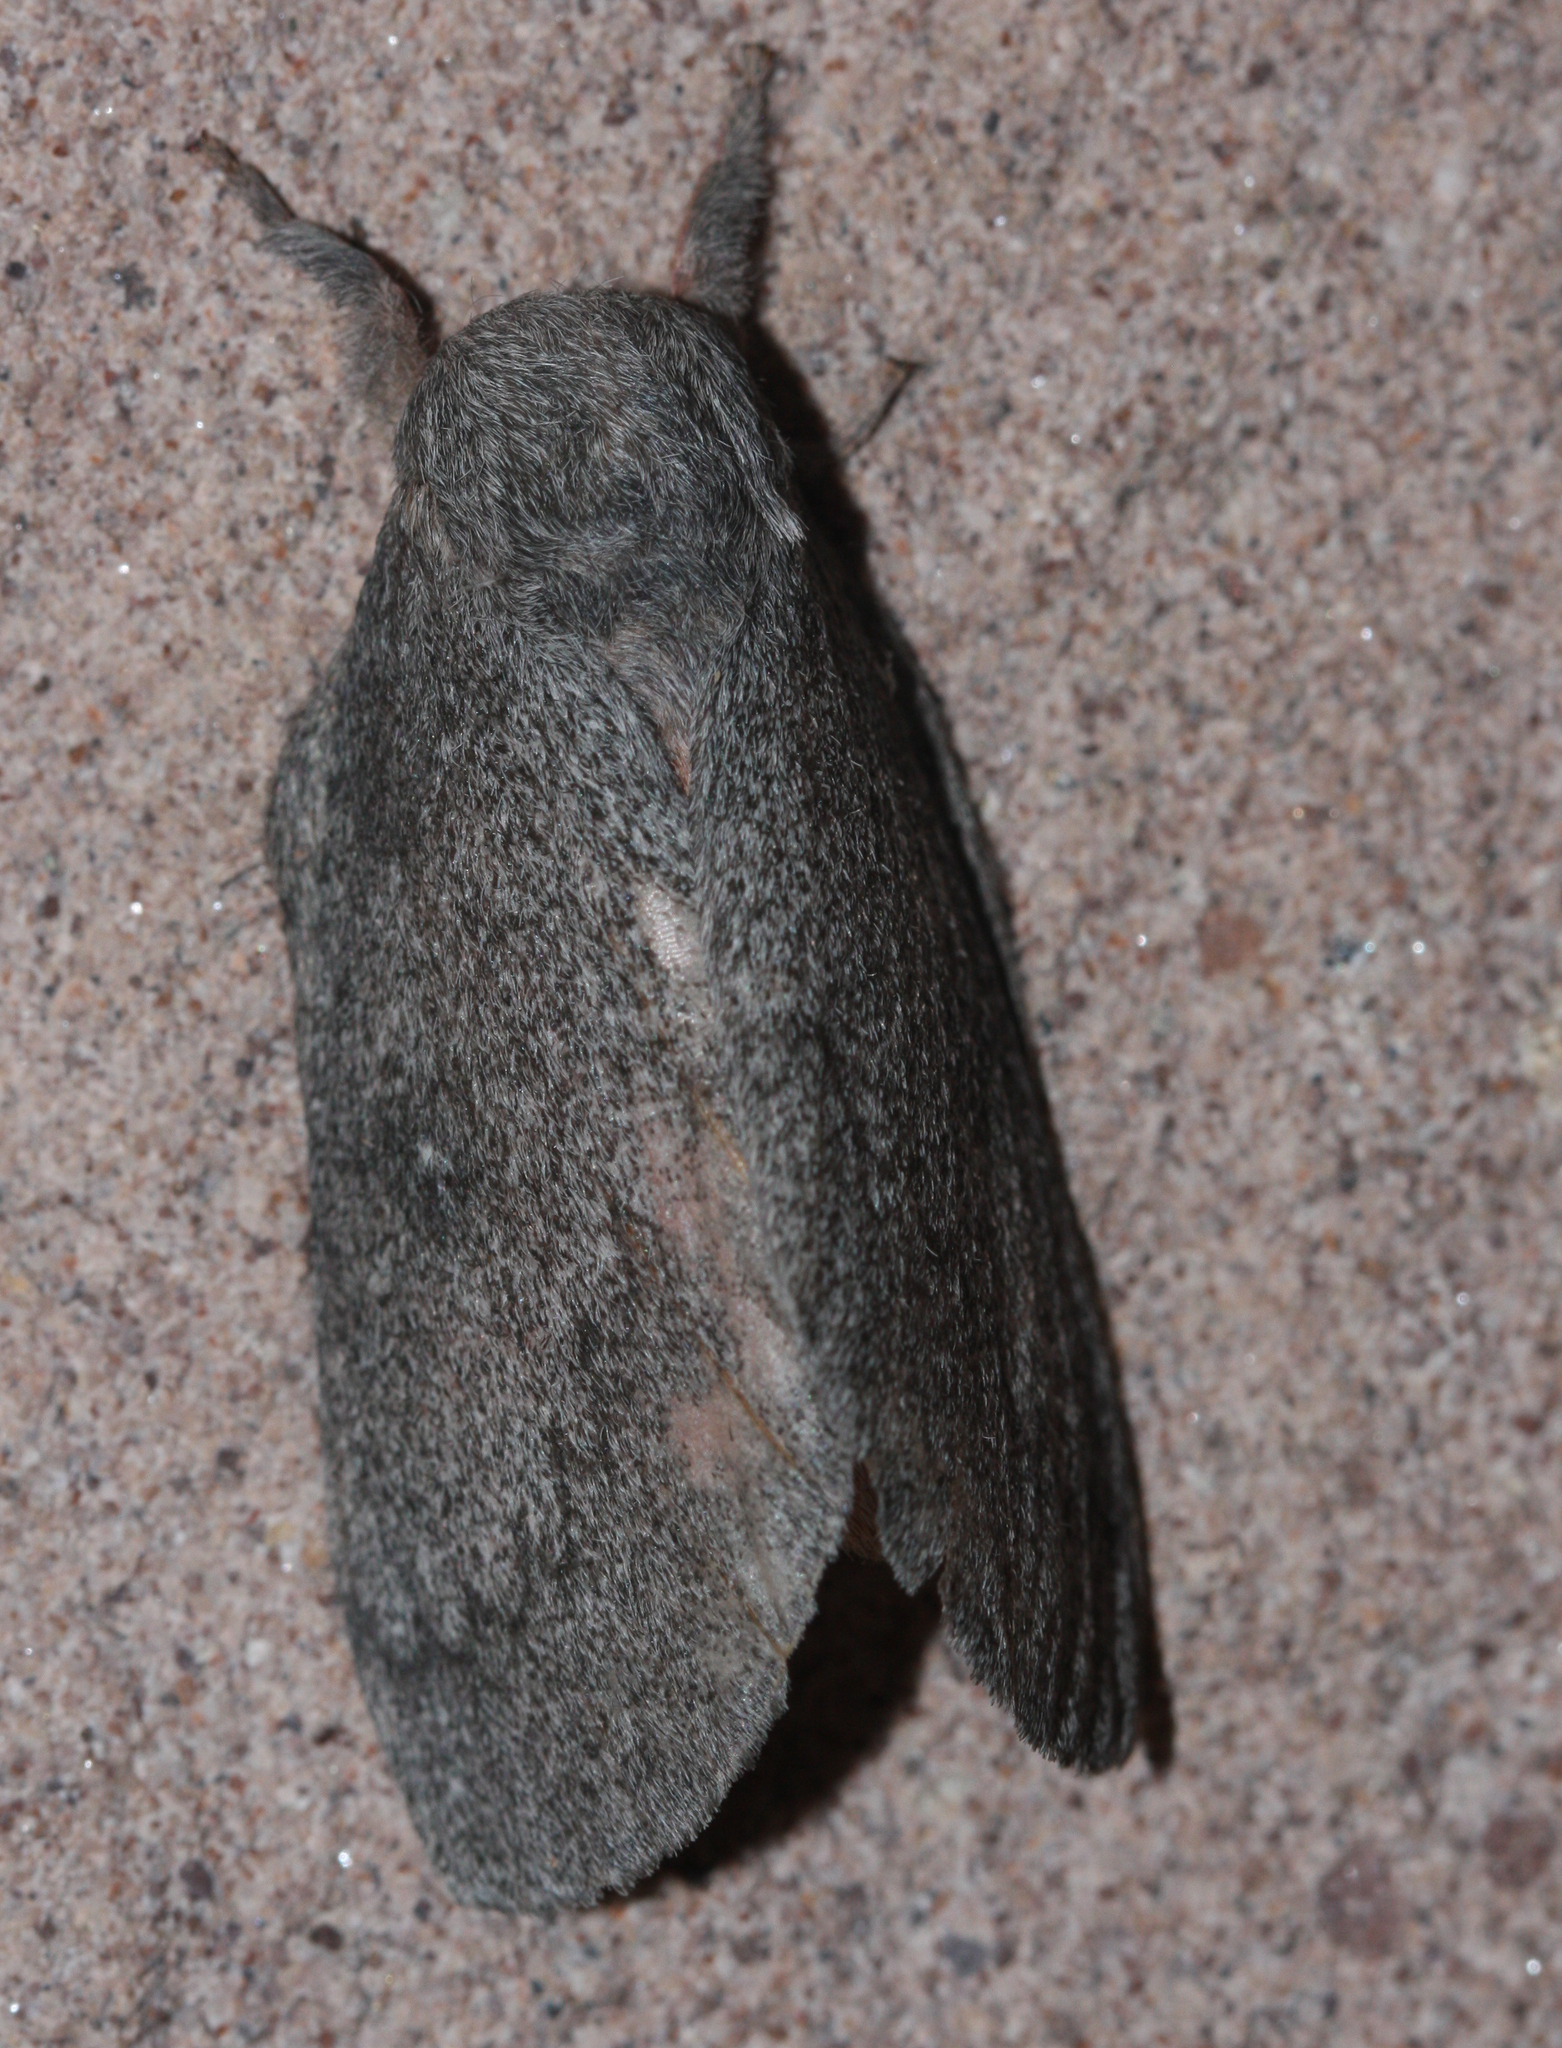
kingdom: Animalia
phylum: Arthropoda
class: Insecta
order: Lepidoptera
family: Saturniidae
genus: Syssphinx
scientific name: Syssphinx hubbardi
